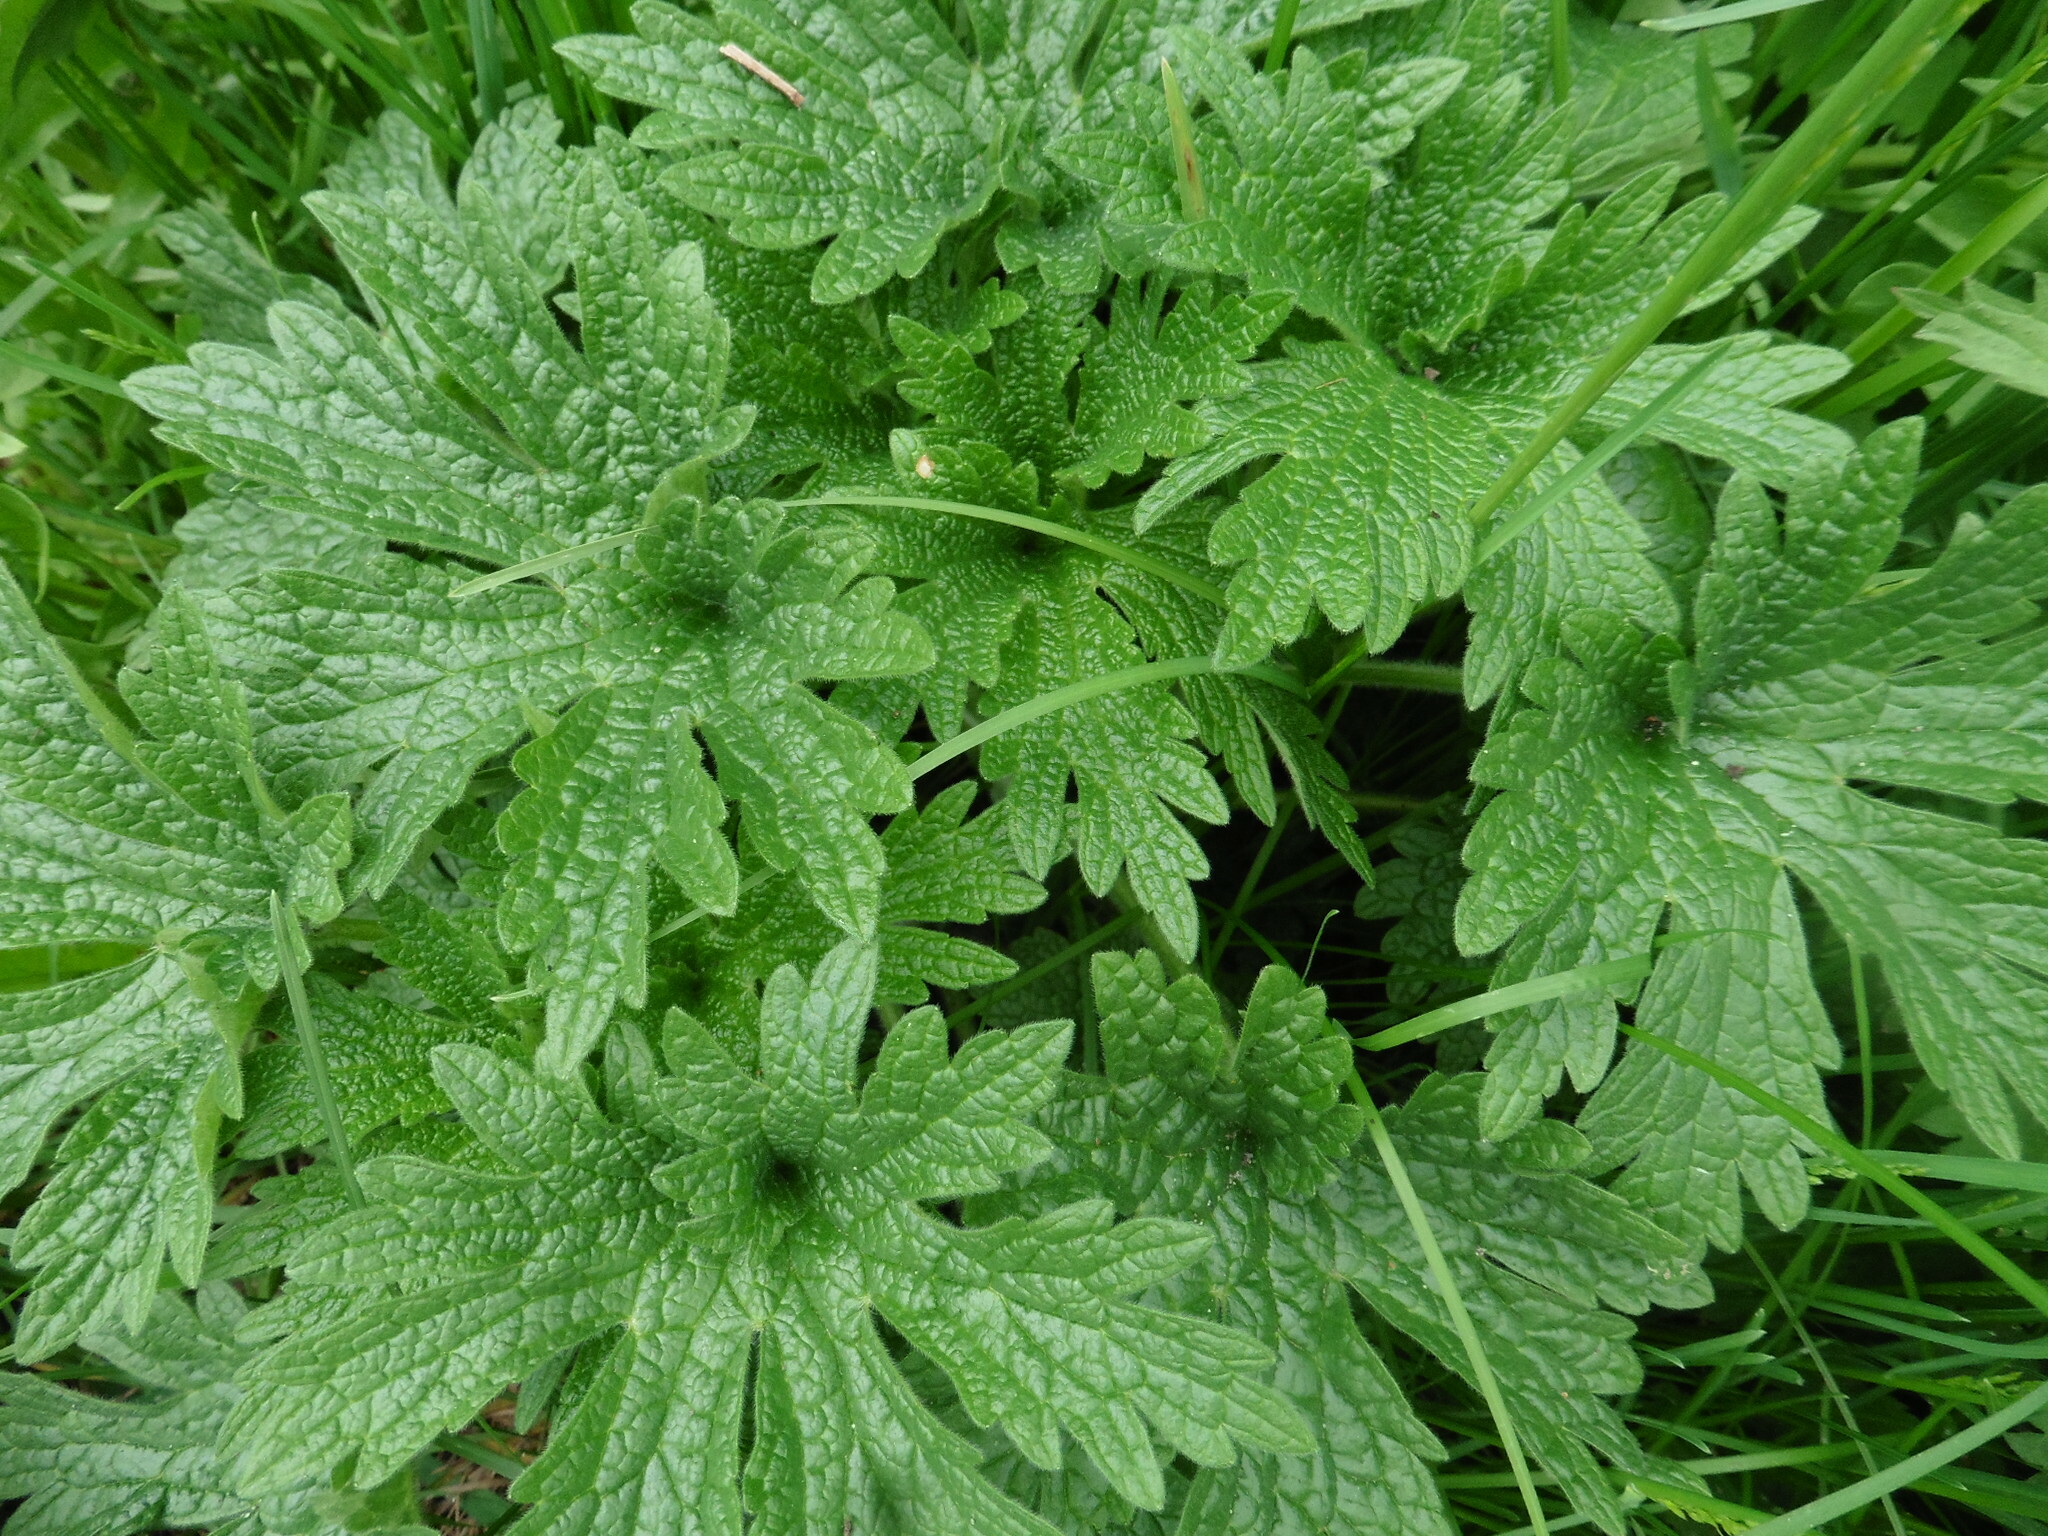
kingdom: Plantae
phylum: Tracheophyta
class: Magnoliopsida
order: Lamiales
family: Lamiaceae
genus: Leonurus
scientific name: Leonurus quinquelobatus
